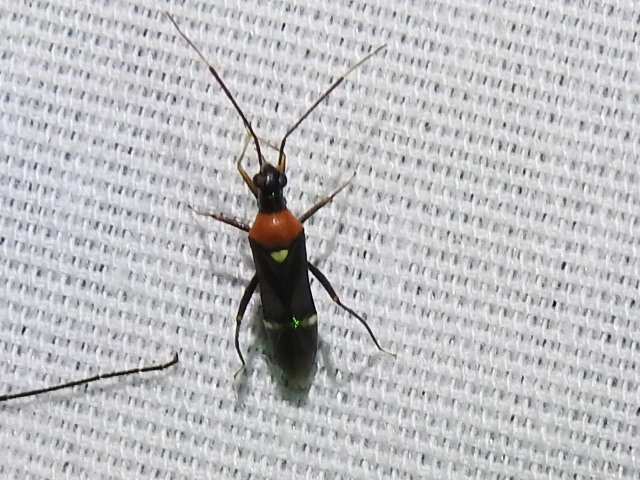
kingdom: Animalia
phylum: Arthropoda
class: Insecta
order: Hemiptera
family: Miridae
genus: Pseudoxenetus
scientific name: Pseudoxenetus regalis
